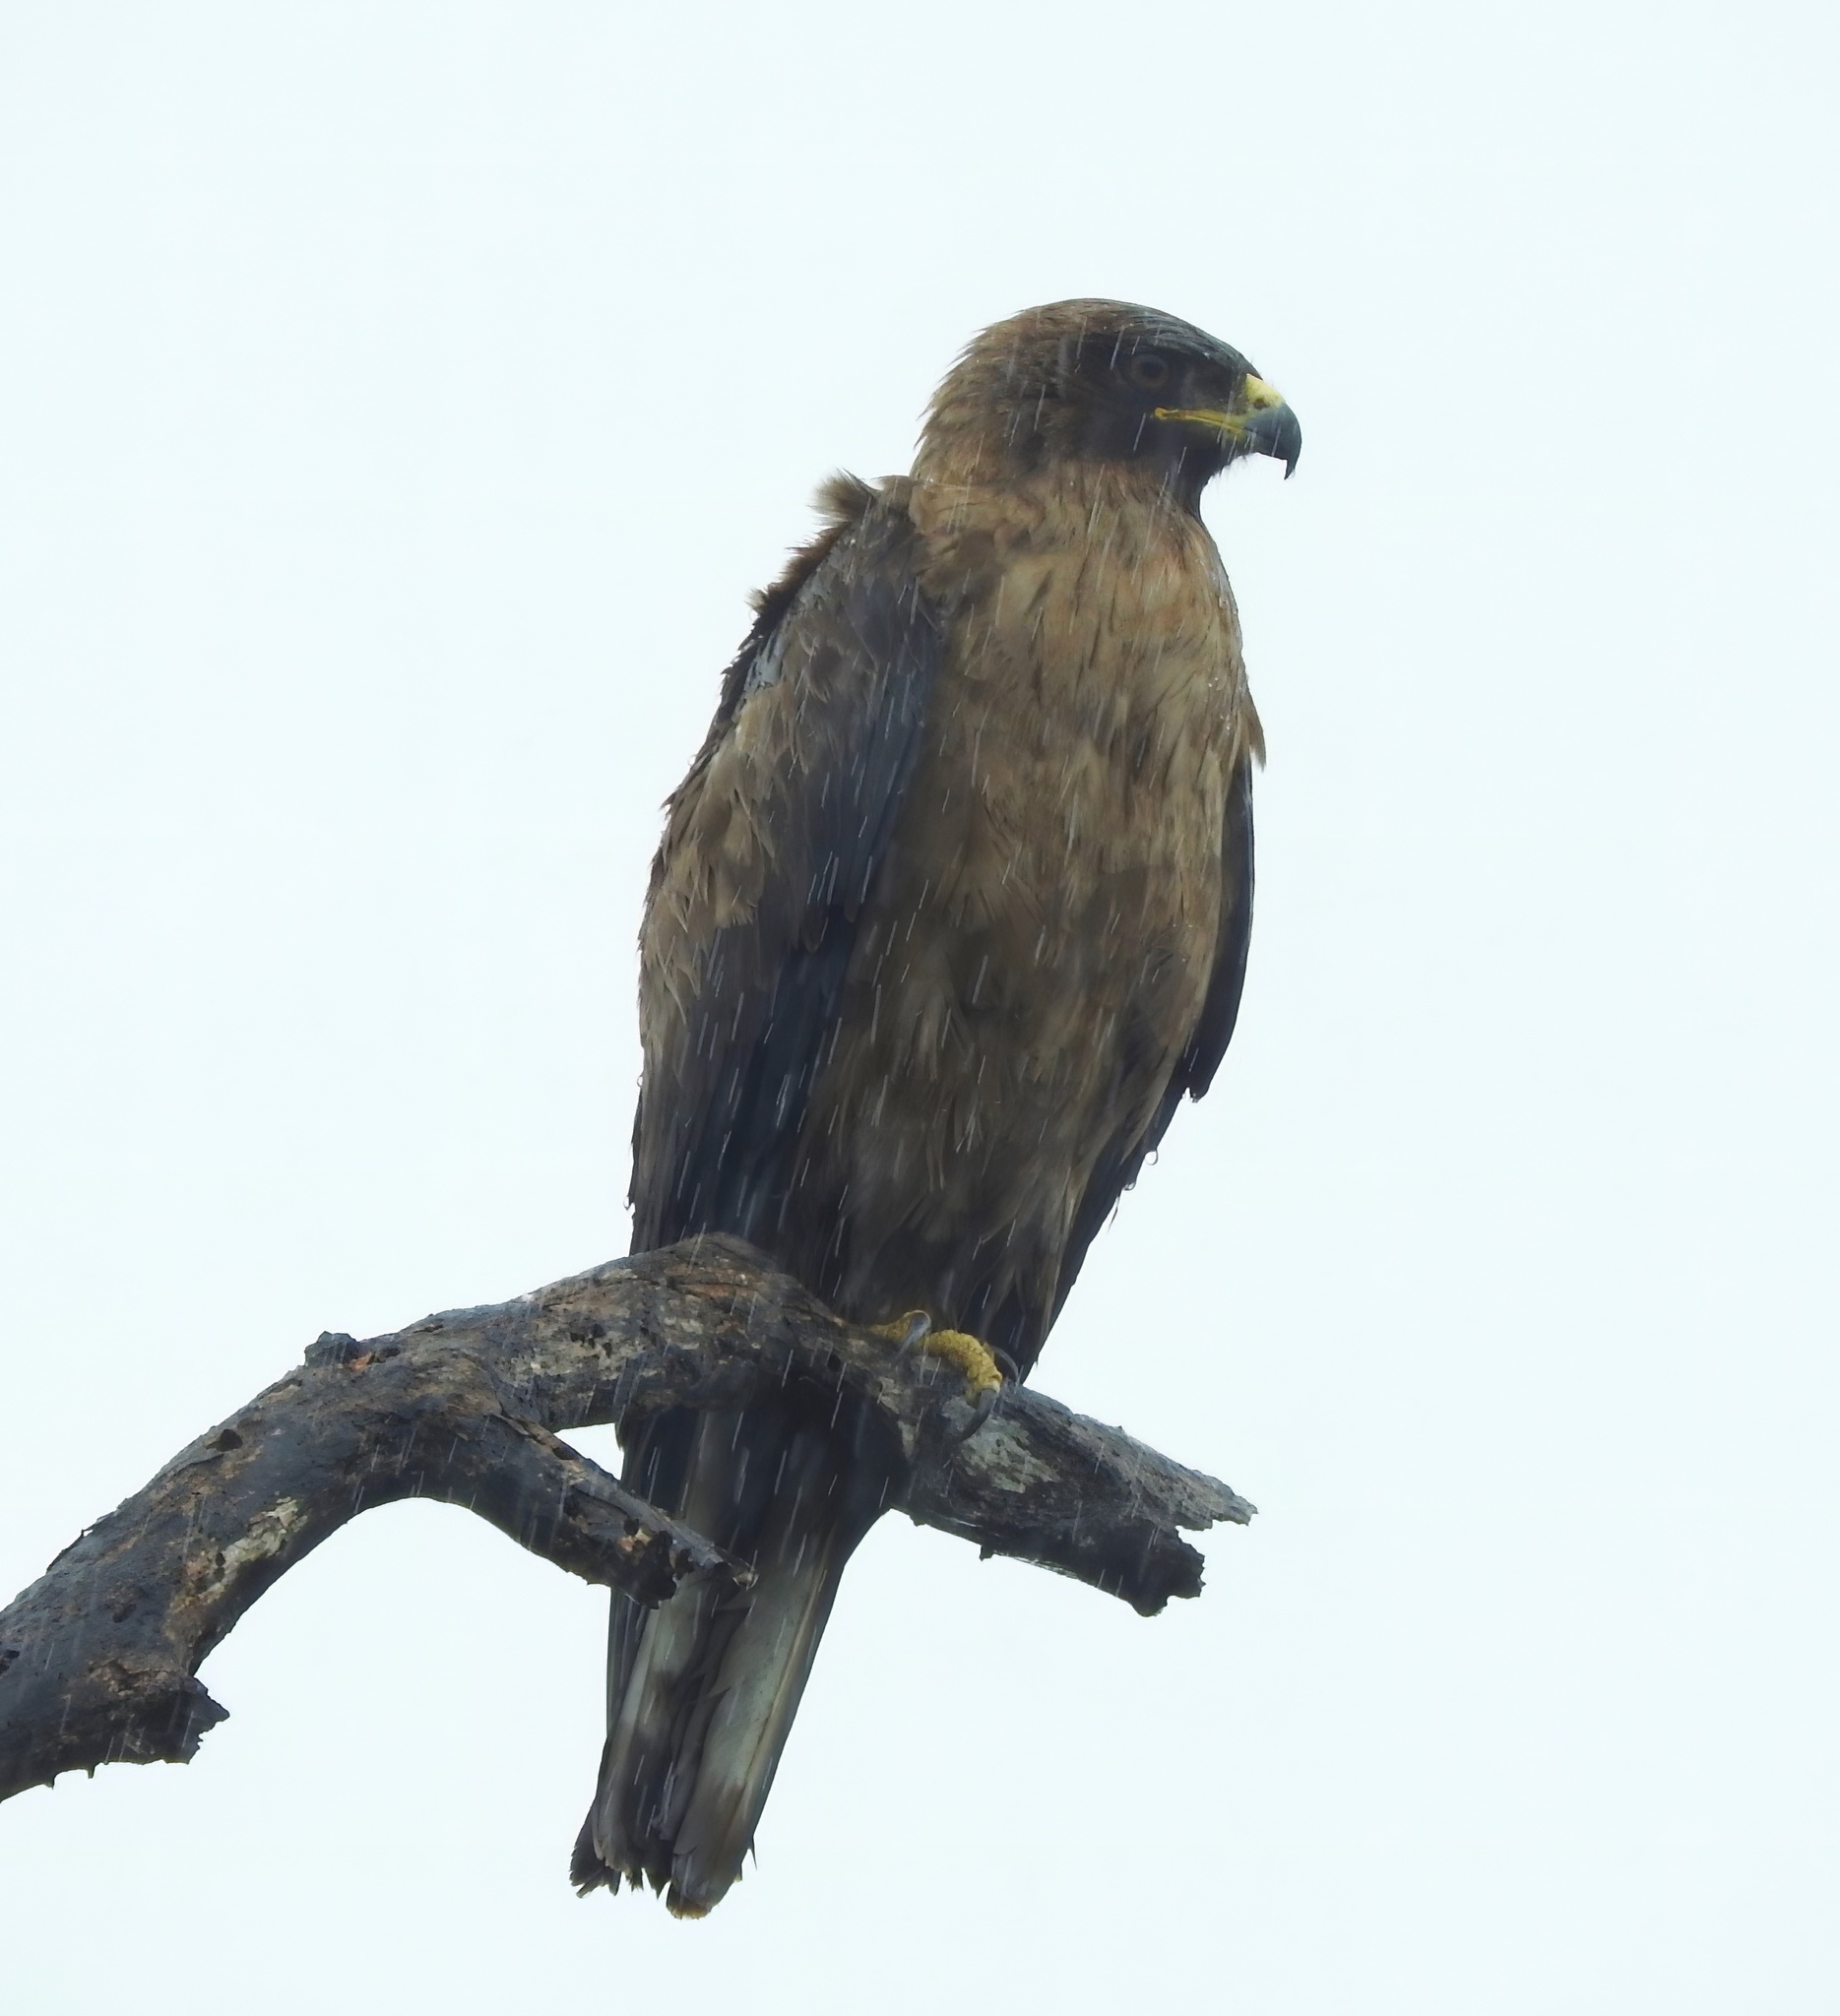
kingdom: Animalia
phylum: Chordata
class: Aves
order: Accipitriformes
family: Accipitridae
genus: Hieraaetus
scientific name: Hieraaetus wahlbergi
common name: Wahlberg's eagle
